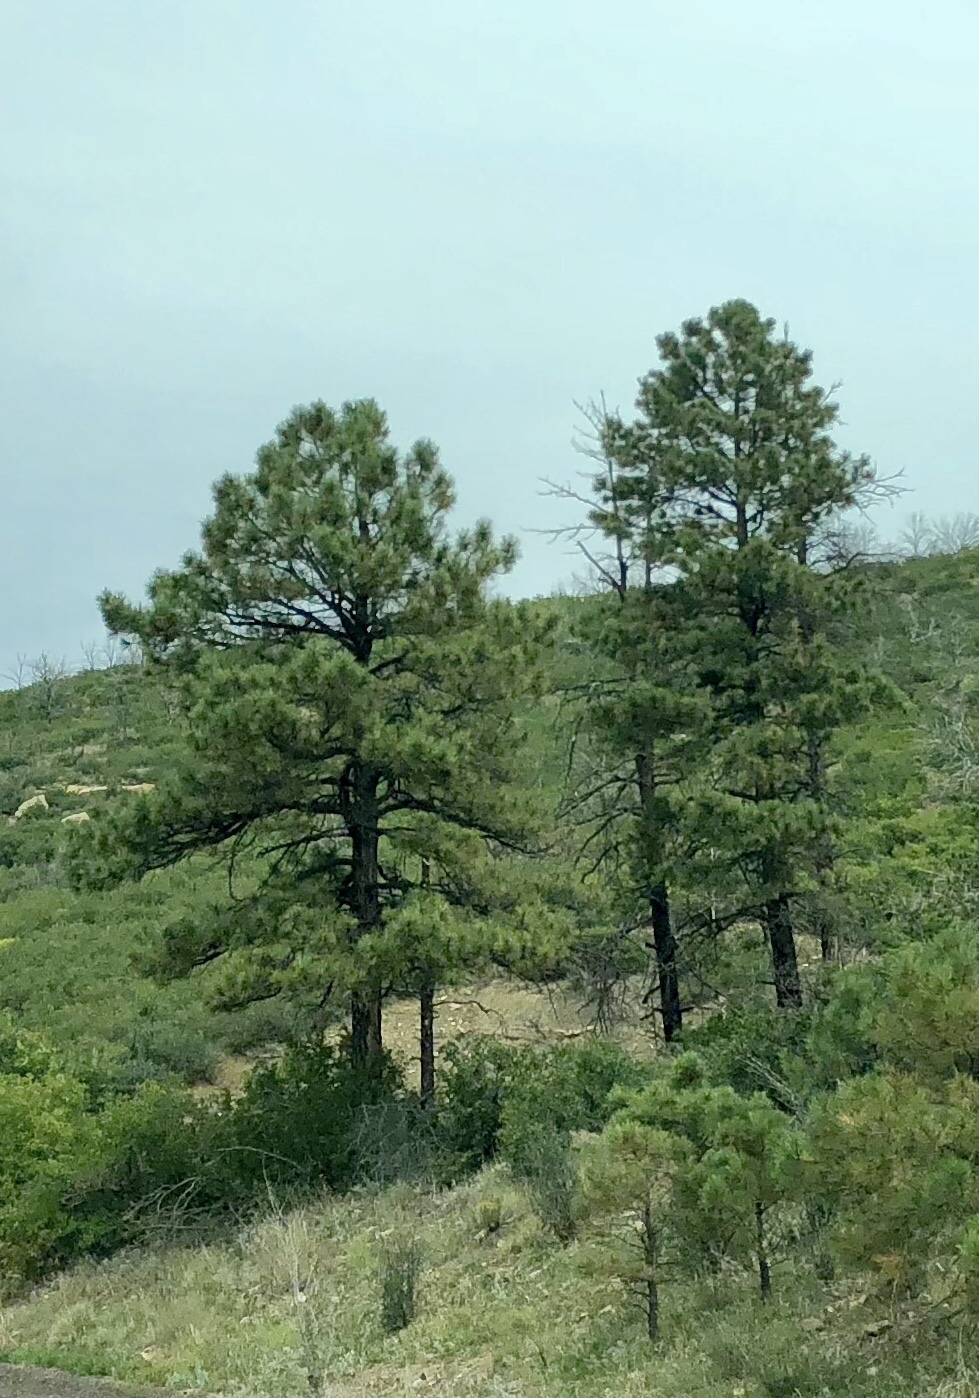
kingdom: Plantae
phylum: Tracheophyta
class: Pinopsida
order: Pinales
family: Pinaceae
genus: Pinus
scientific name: Pinus ponderosa
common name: Western yellow-pine
